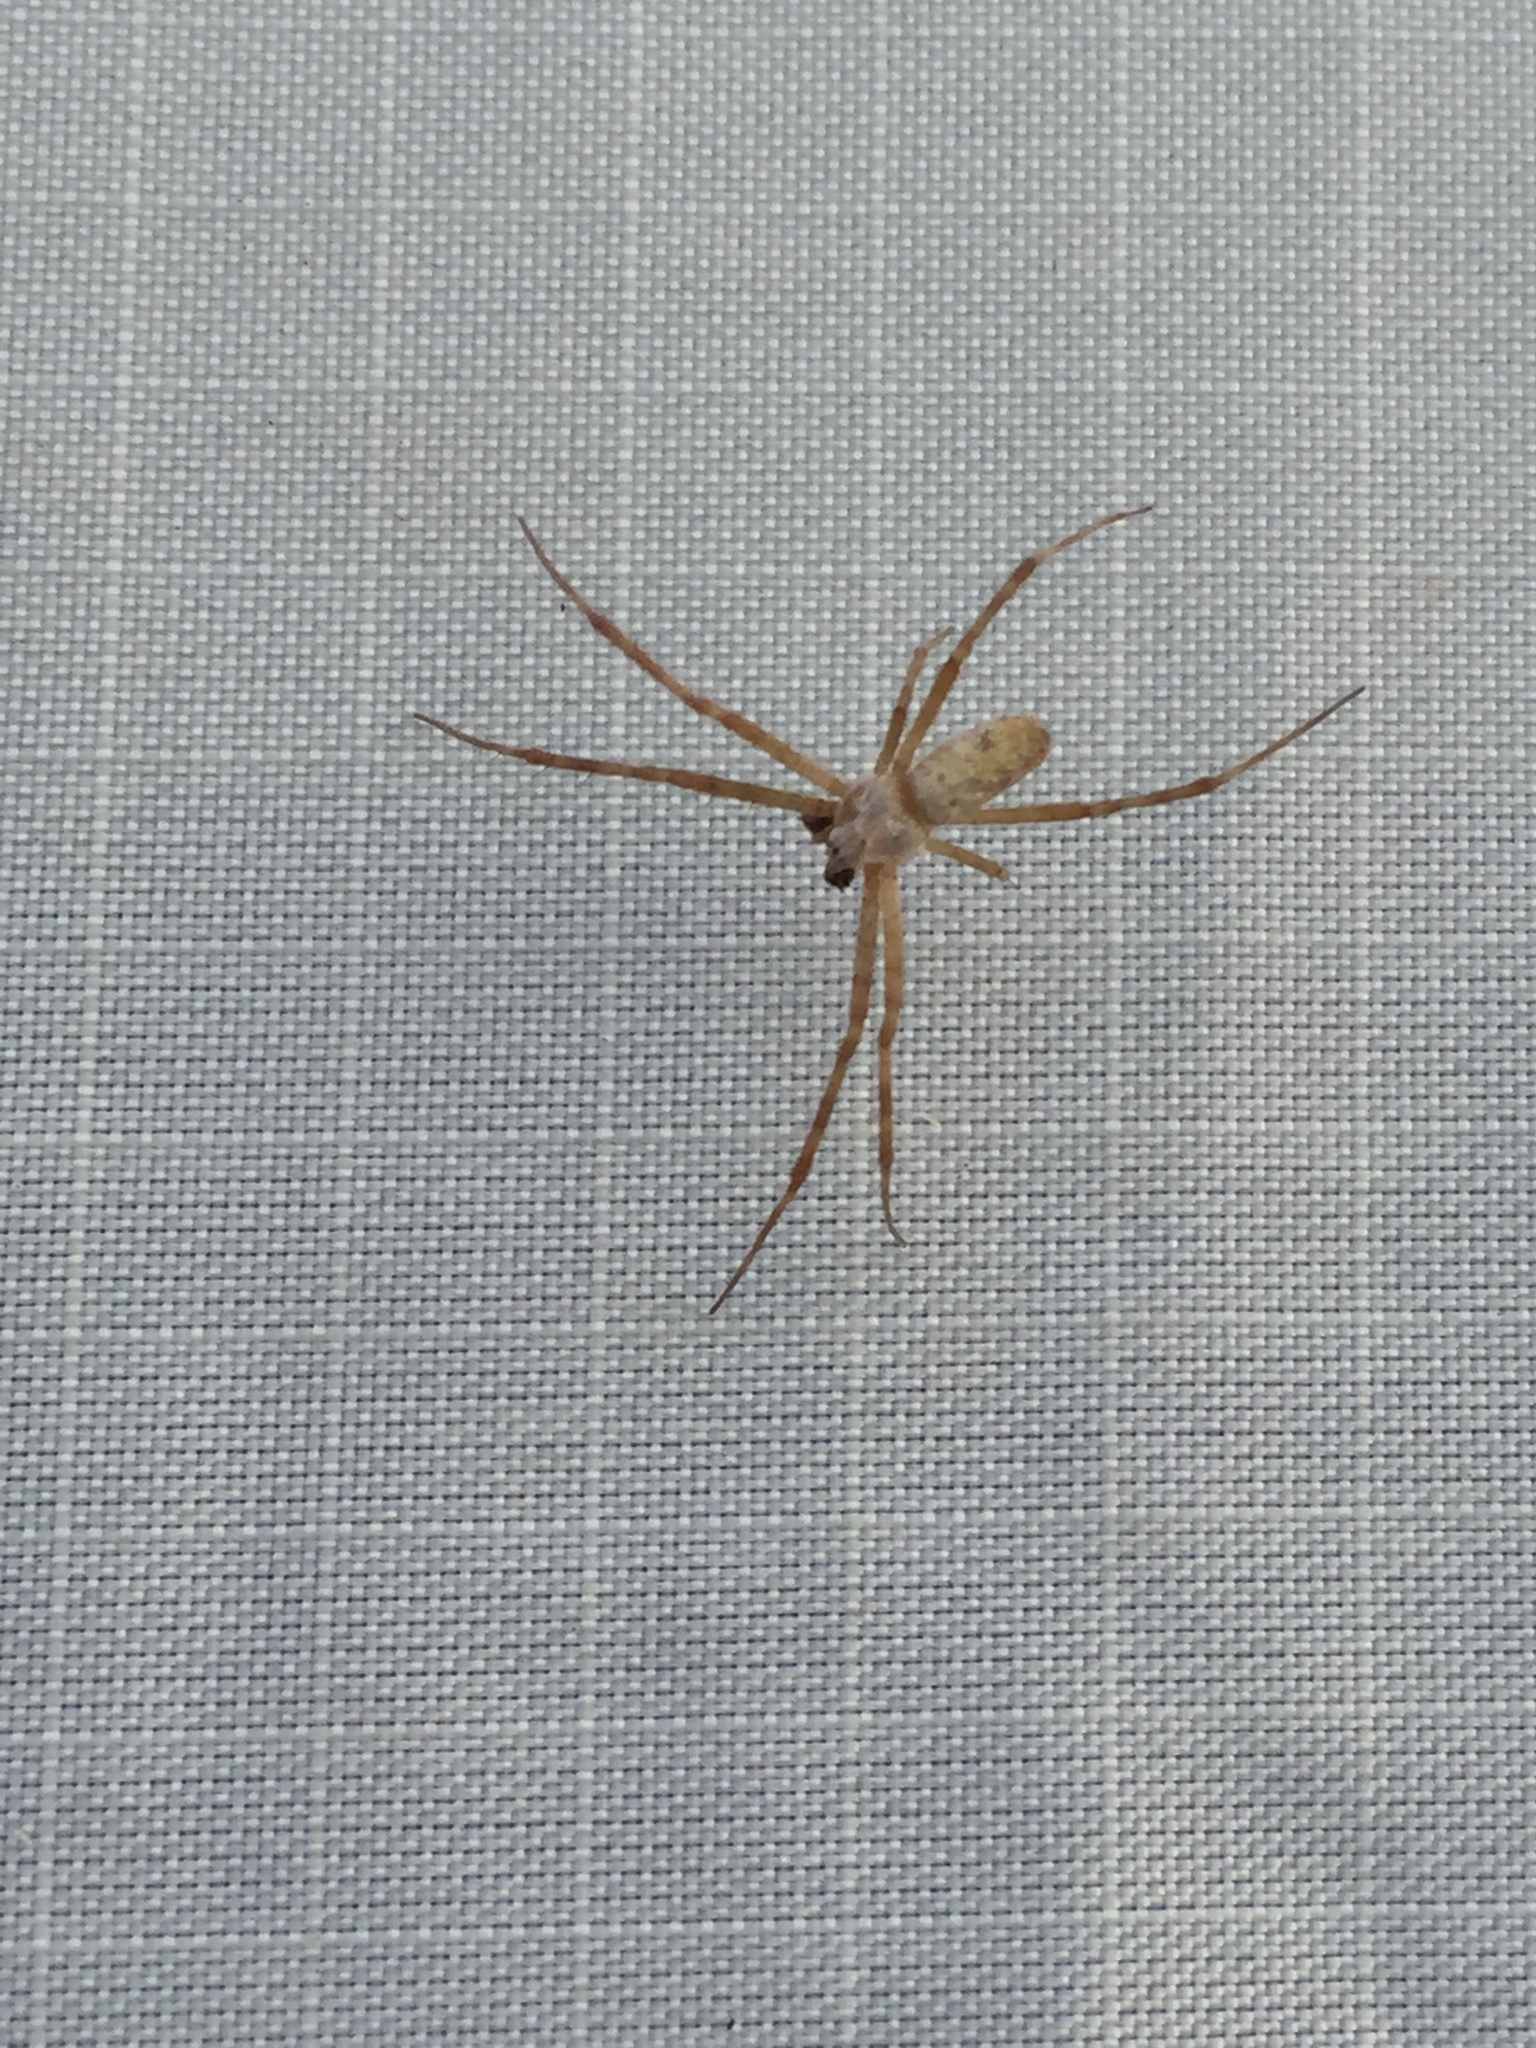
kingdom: Animalia
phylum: Arthropoda
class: Arachnida
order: Araneae
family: Araneidae
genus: Argiope
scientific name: Argiope trifasciata
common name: Banded garden spider
